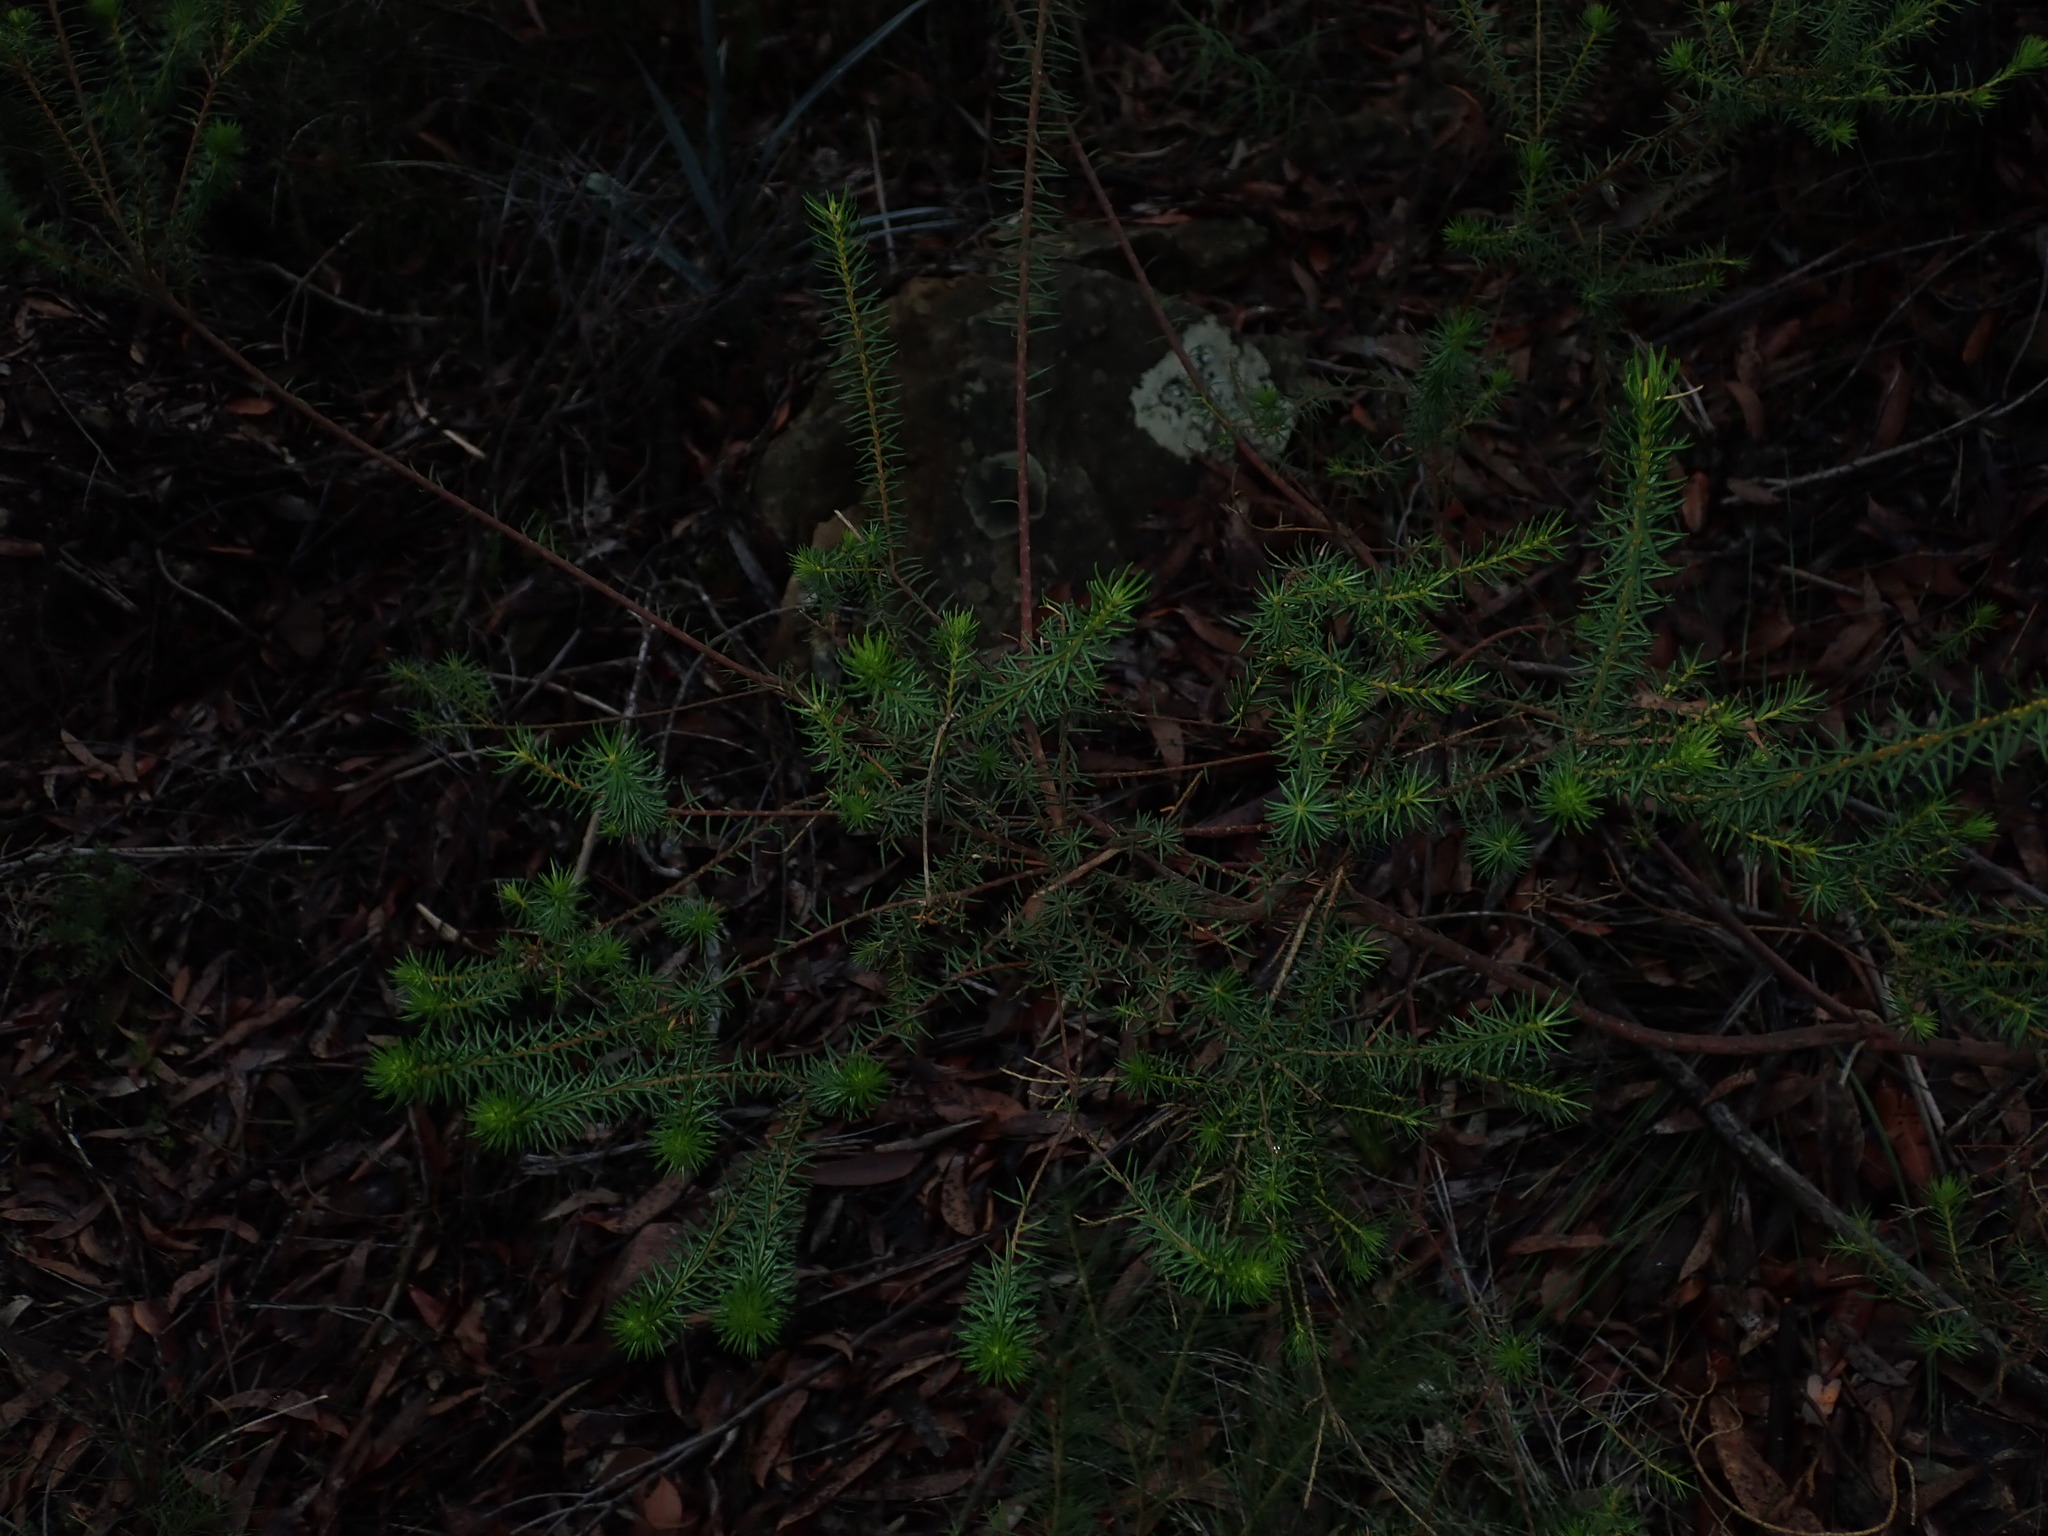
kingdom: Plantae
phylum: Tracheophyta
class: Magnoliopsida
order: Fabales
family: Fabaceae
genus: Phyllota
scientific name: Phyllota phylicoides
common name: Heath phyllota
